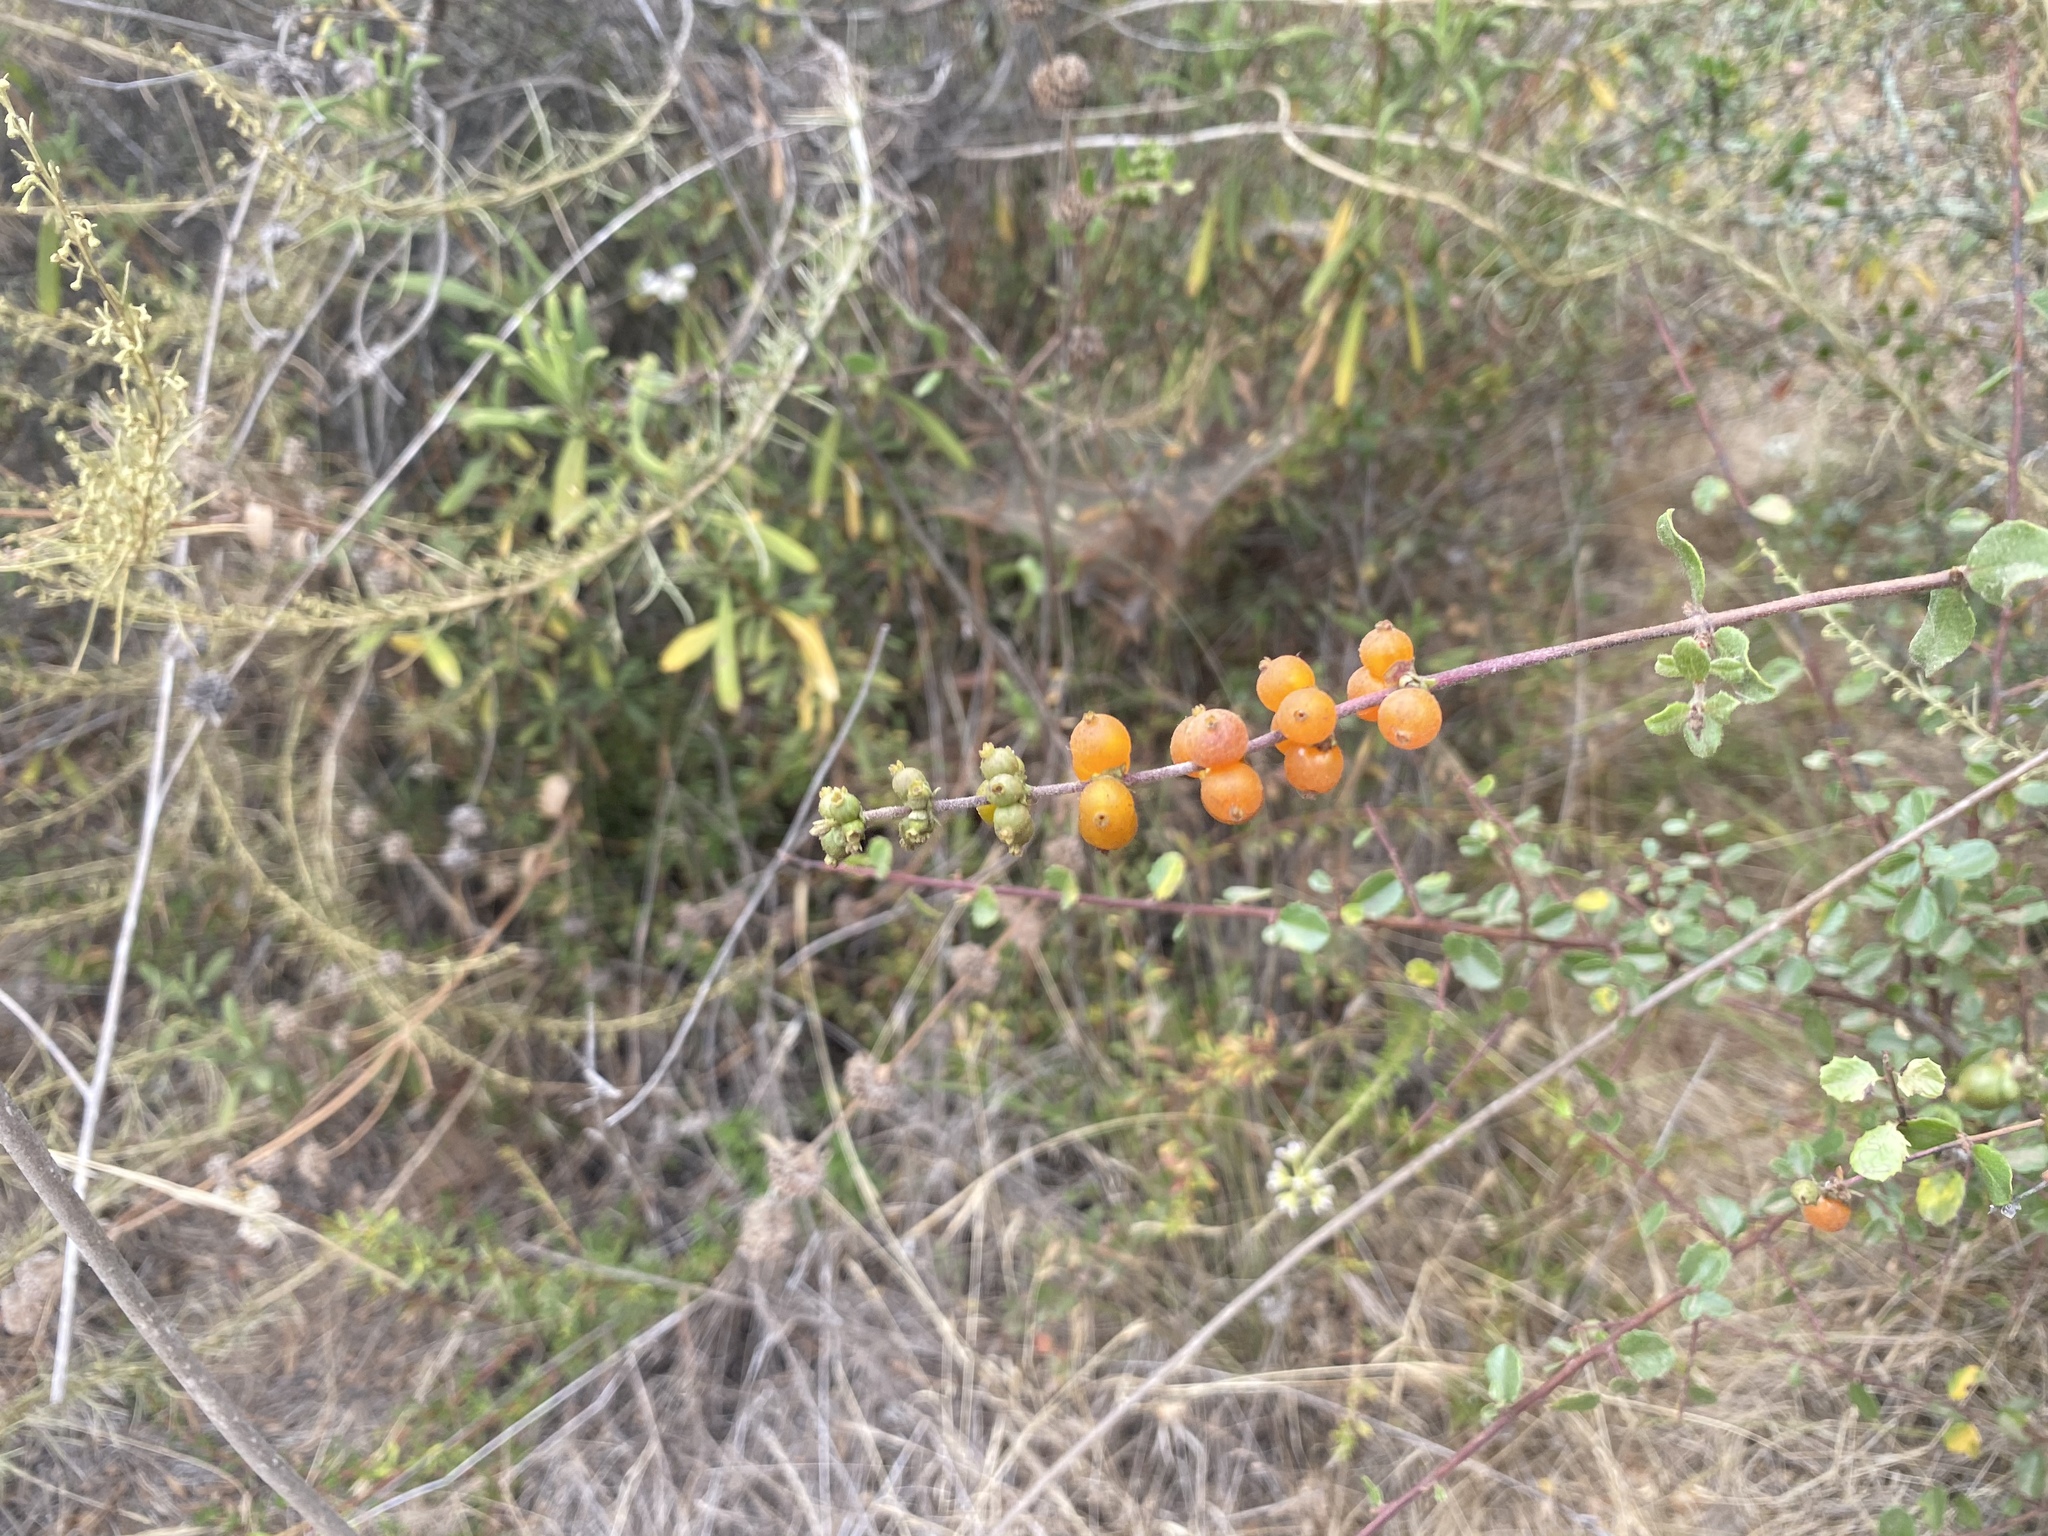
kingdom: Plantae
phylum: Tracheophyta
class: Magnoliopsida
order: Dipsacales
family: Caprifoliaceae
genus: Lonicera
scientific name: Lonicera subspicata
